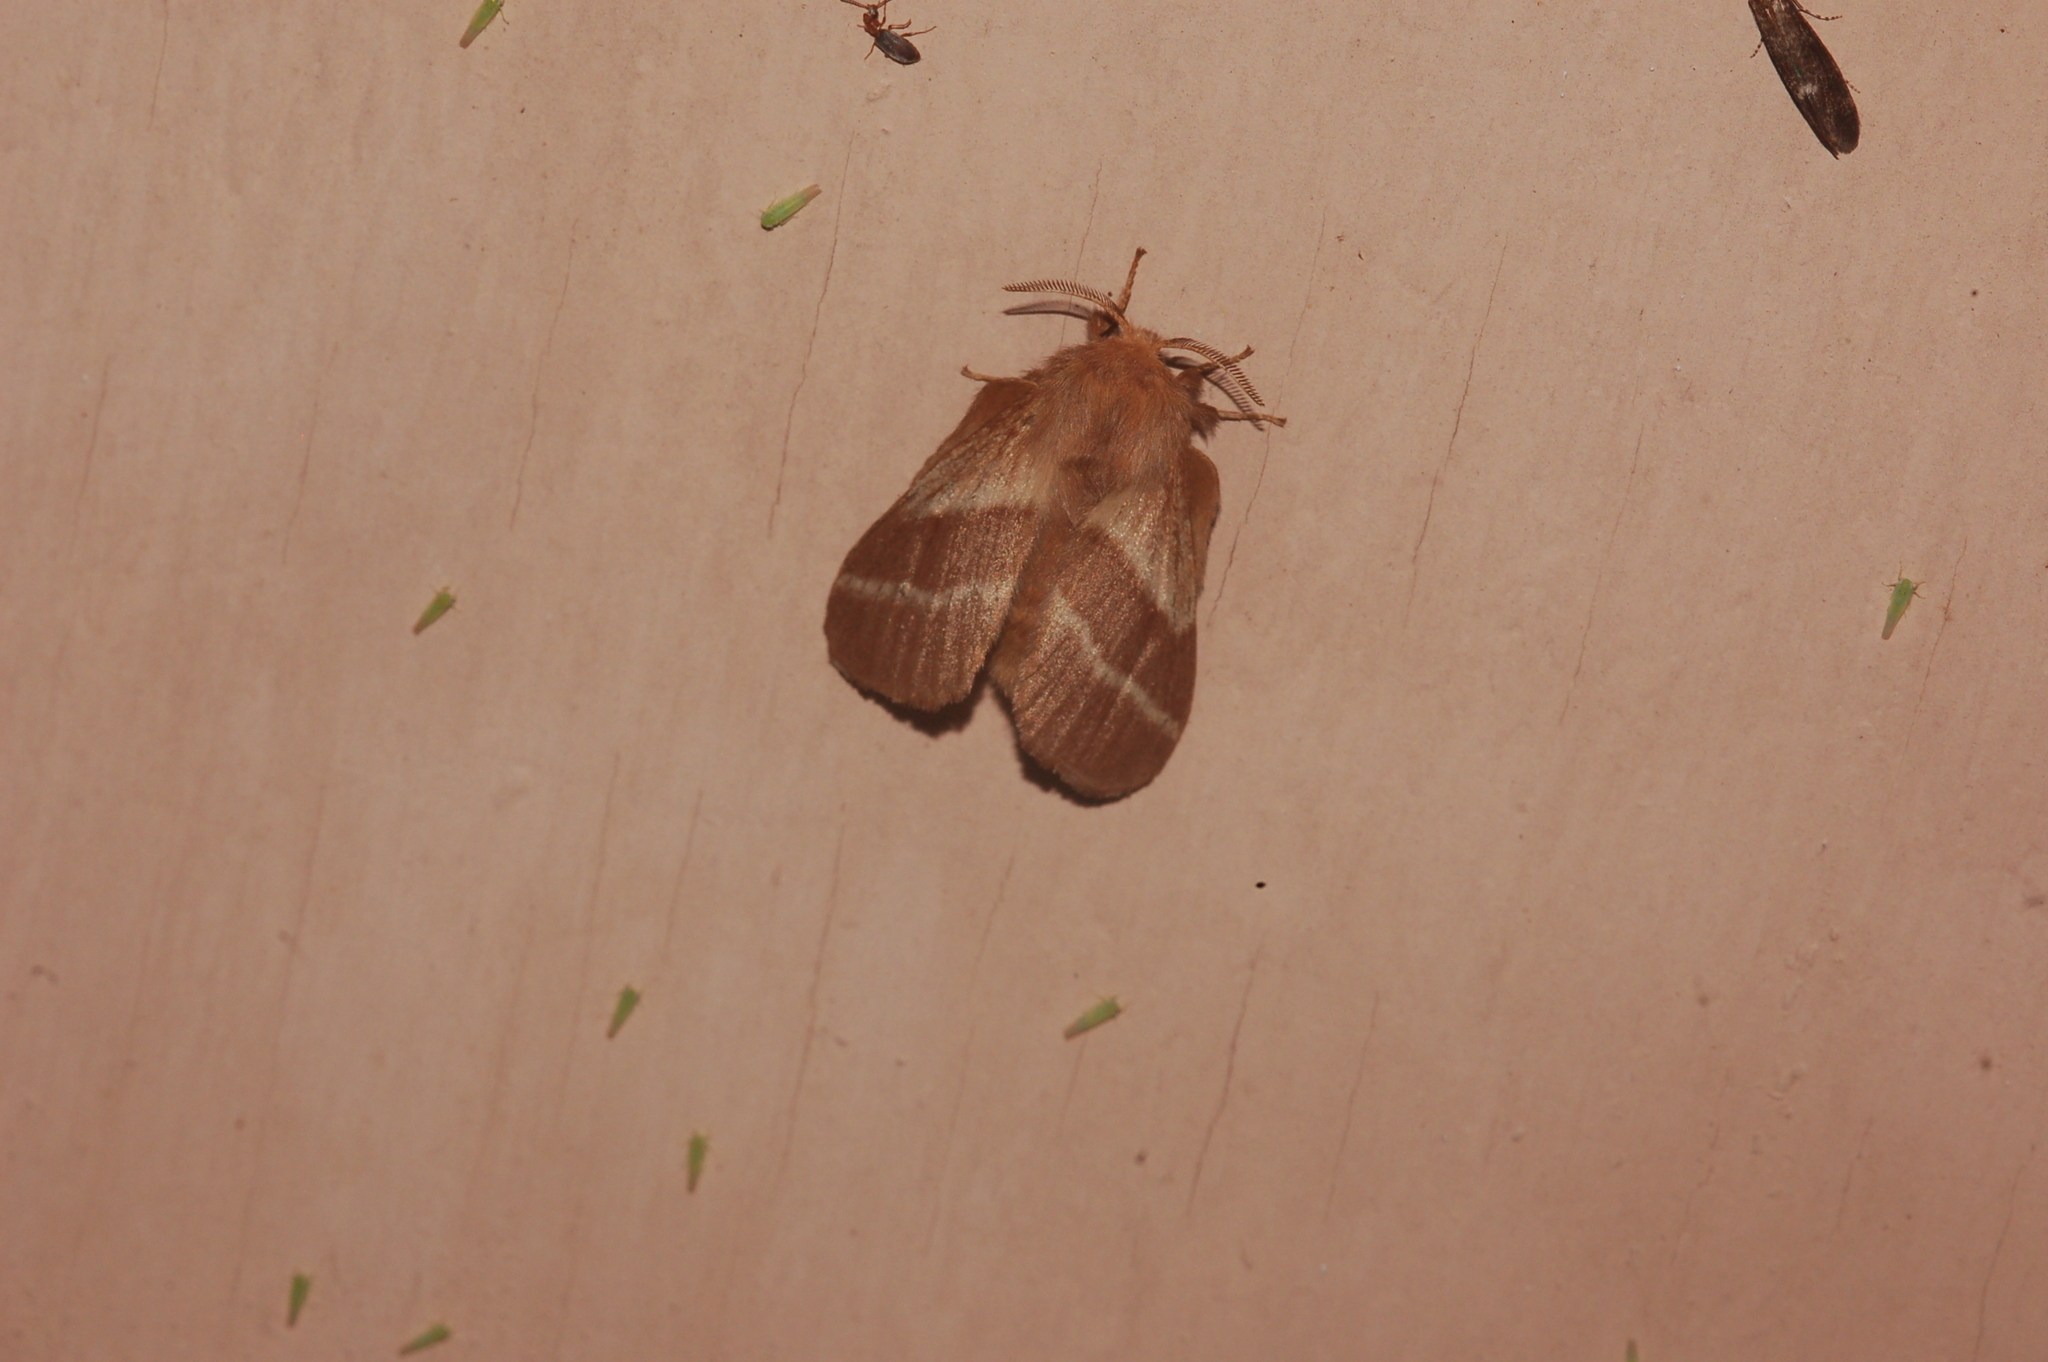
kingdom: Animalia
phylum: Arthropoda
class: Insecta
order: Lepidoptera
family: Lasiocampidae
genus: Malacosoma
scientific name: Malacosoma americana
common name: Eastern tent caterpillar moth
